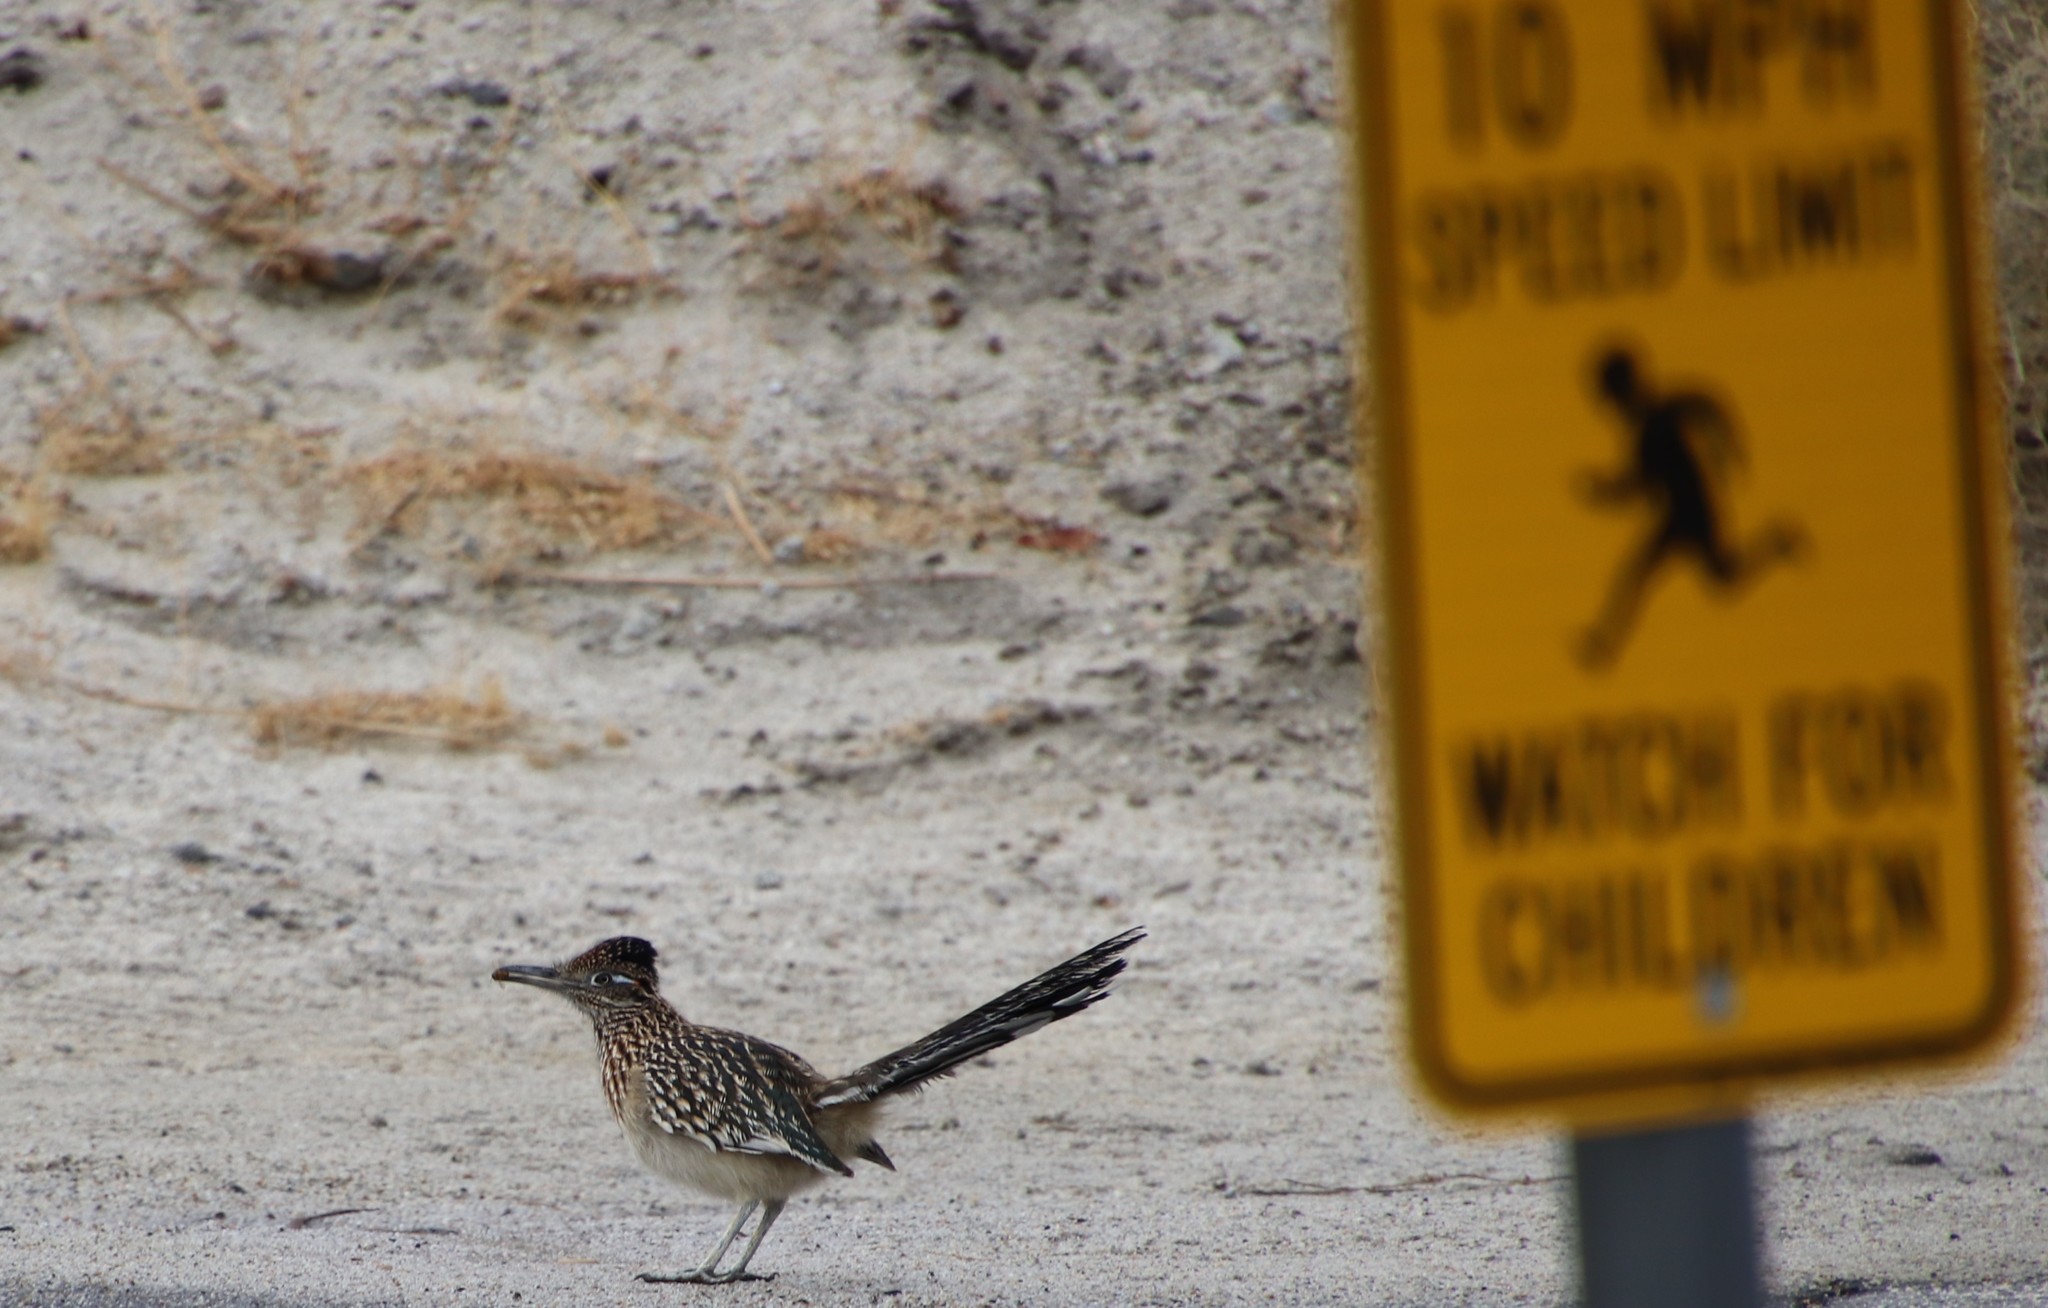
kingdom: Animalia
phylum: Chordata
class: Aves
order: Cuculiformes
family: Cuculidae
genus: Geococcyx
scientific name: Geococcyx californianus
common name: Greater roadrunner
